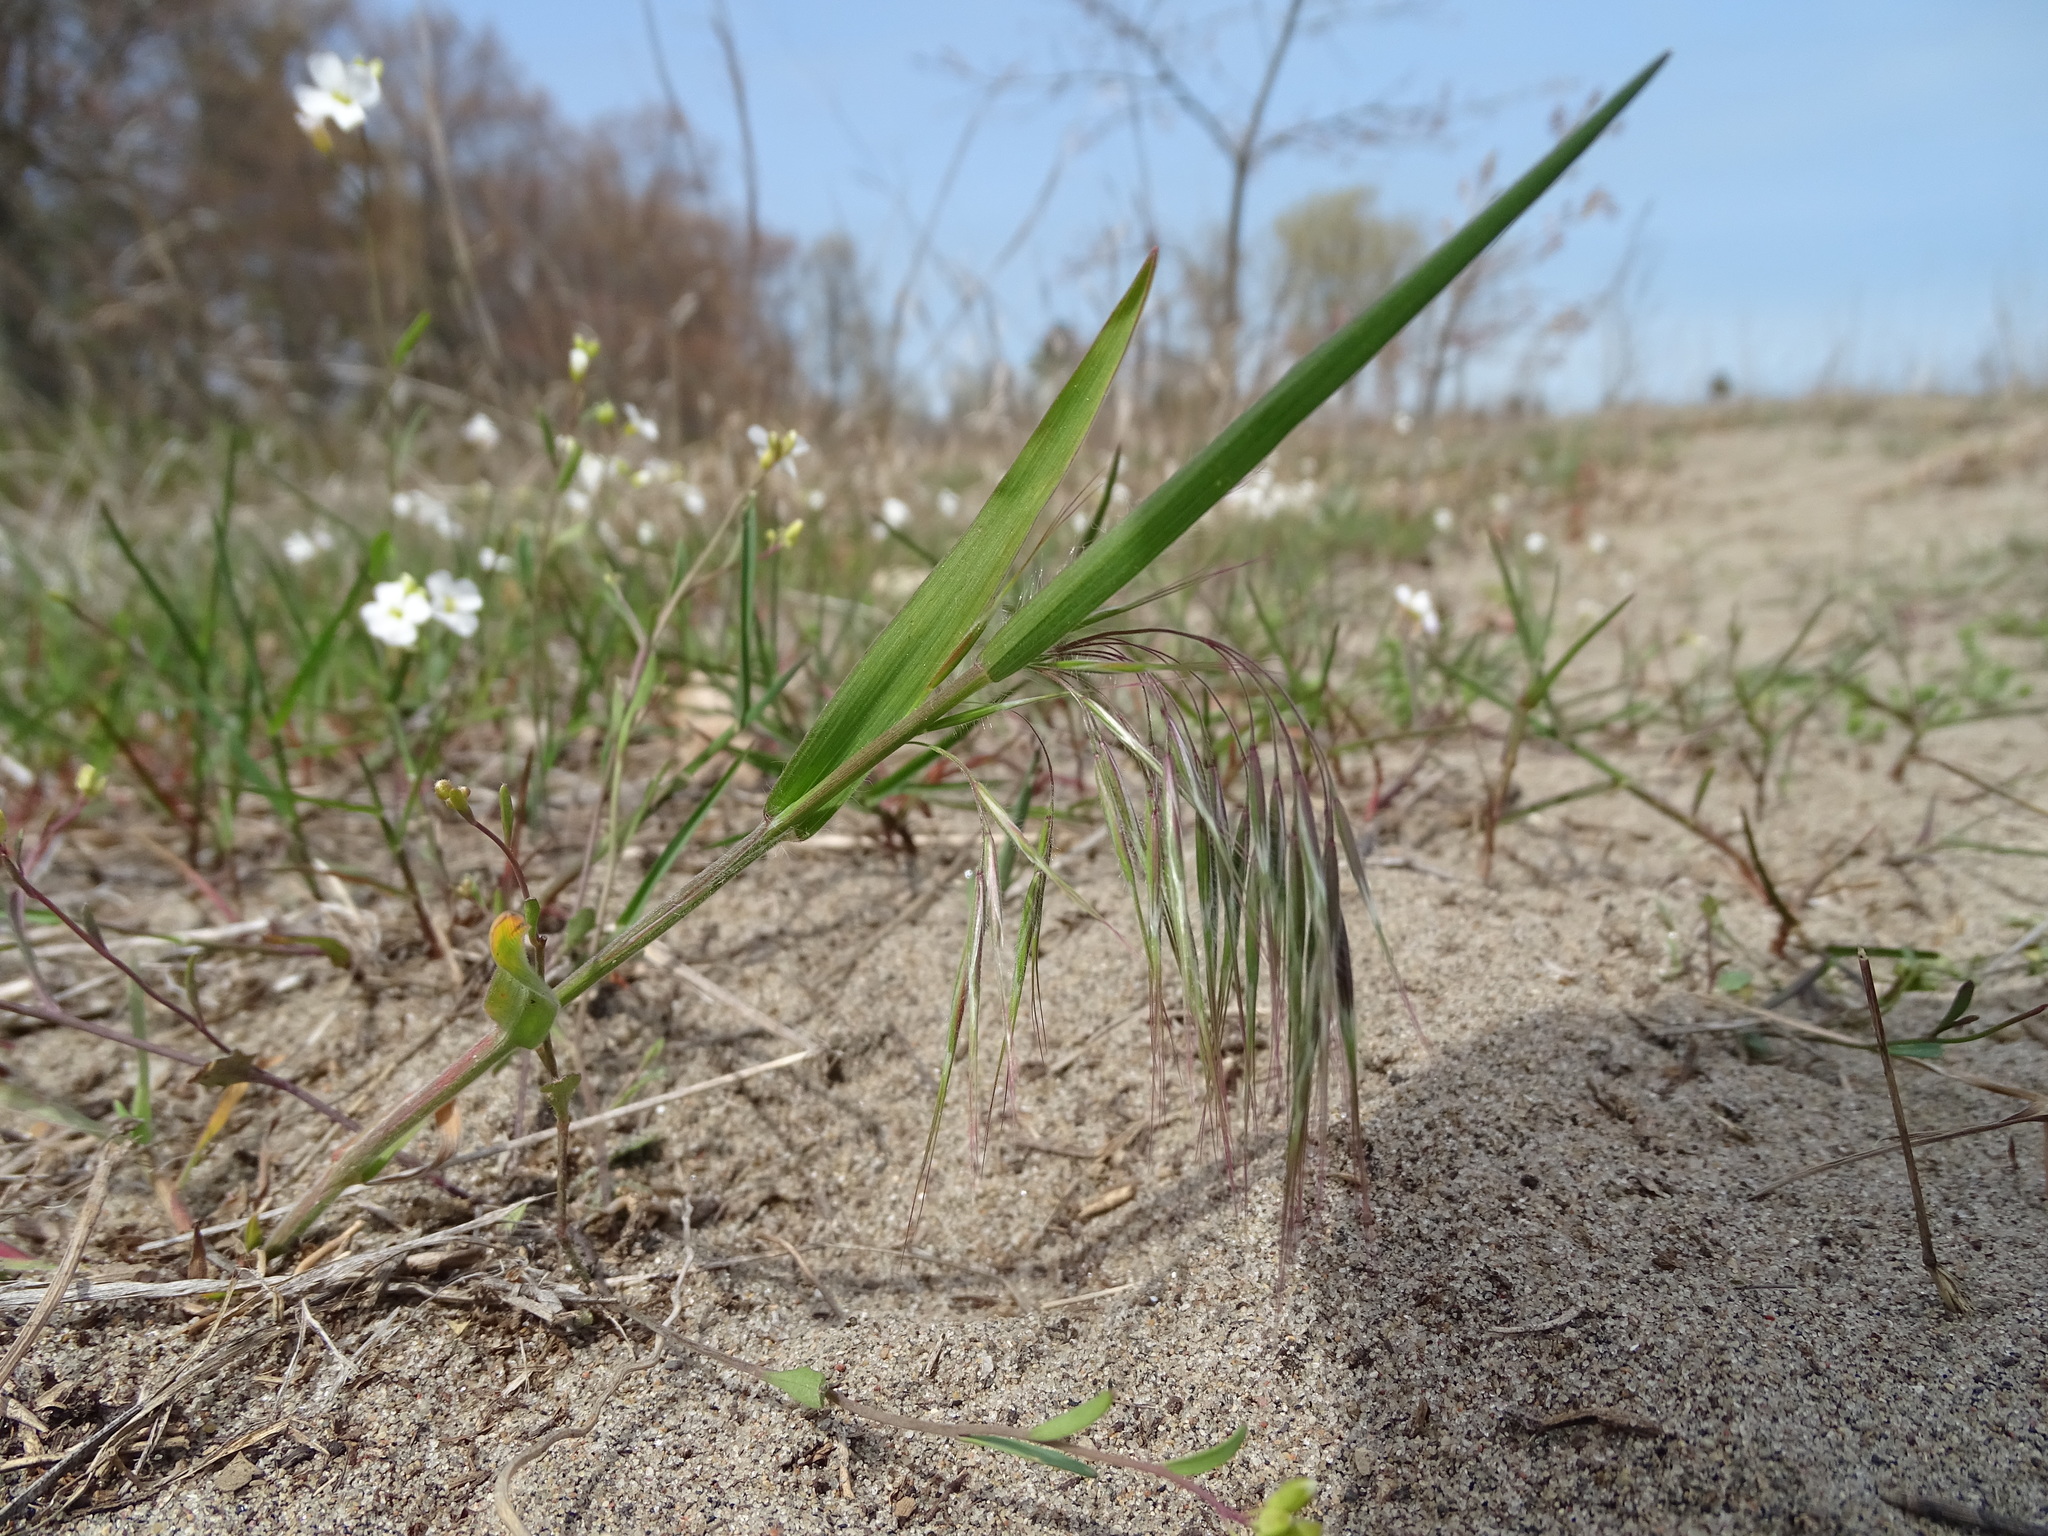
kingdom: Plantae
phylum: Tracheophyta
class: Liliopsida
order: Poales
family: Poaceae
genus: Bromus
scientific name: Bromus tectorum
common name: Cheatgrass
